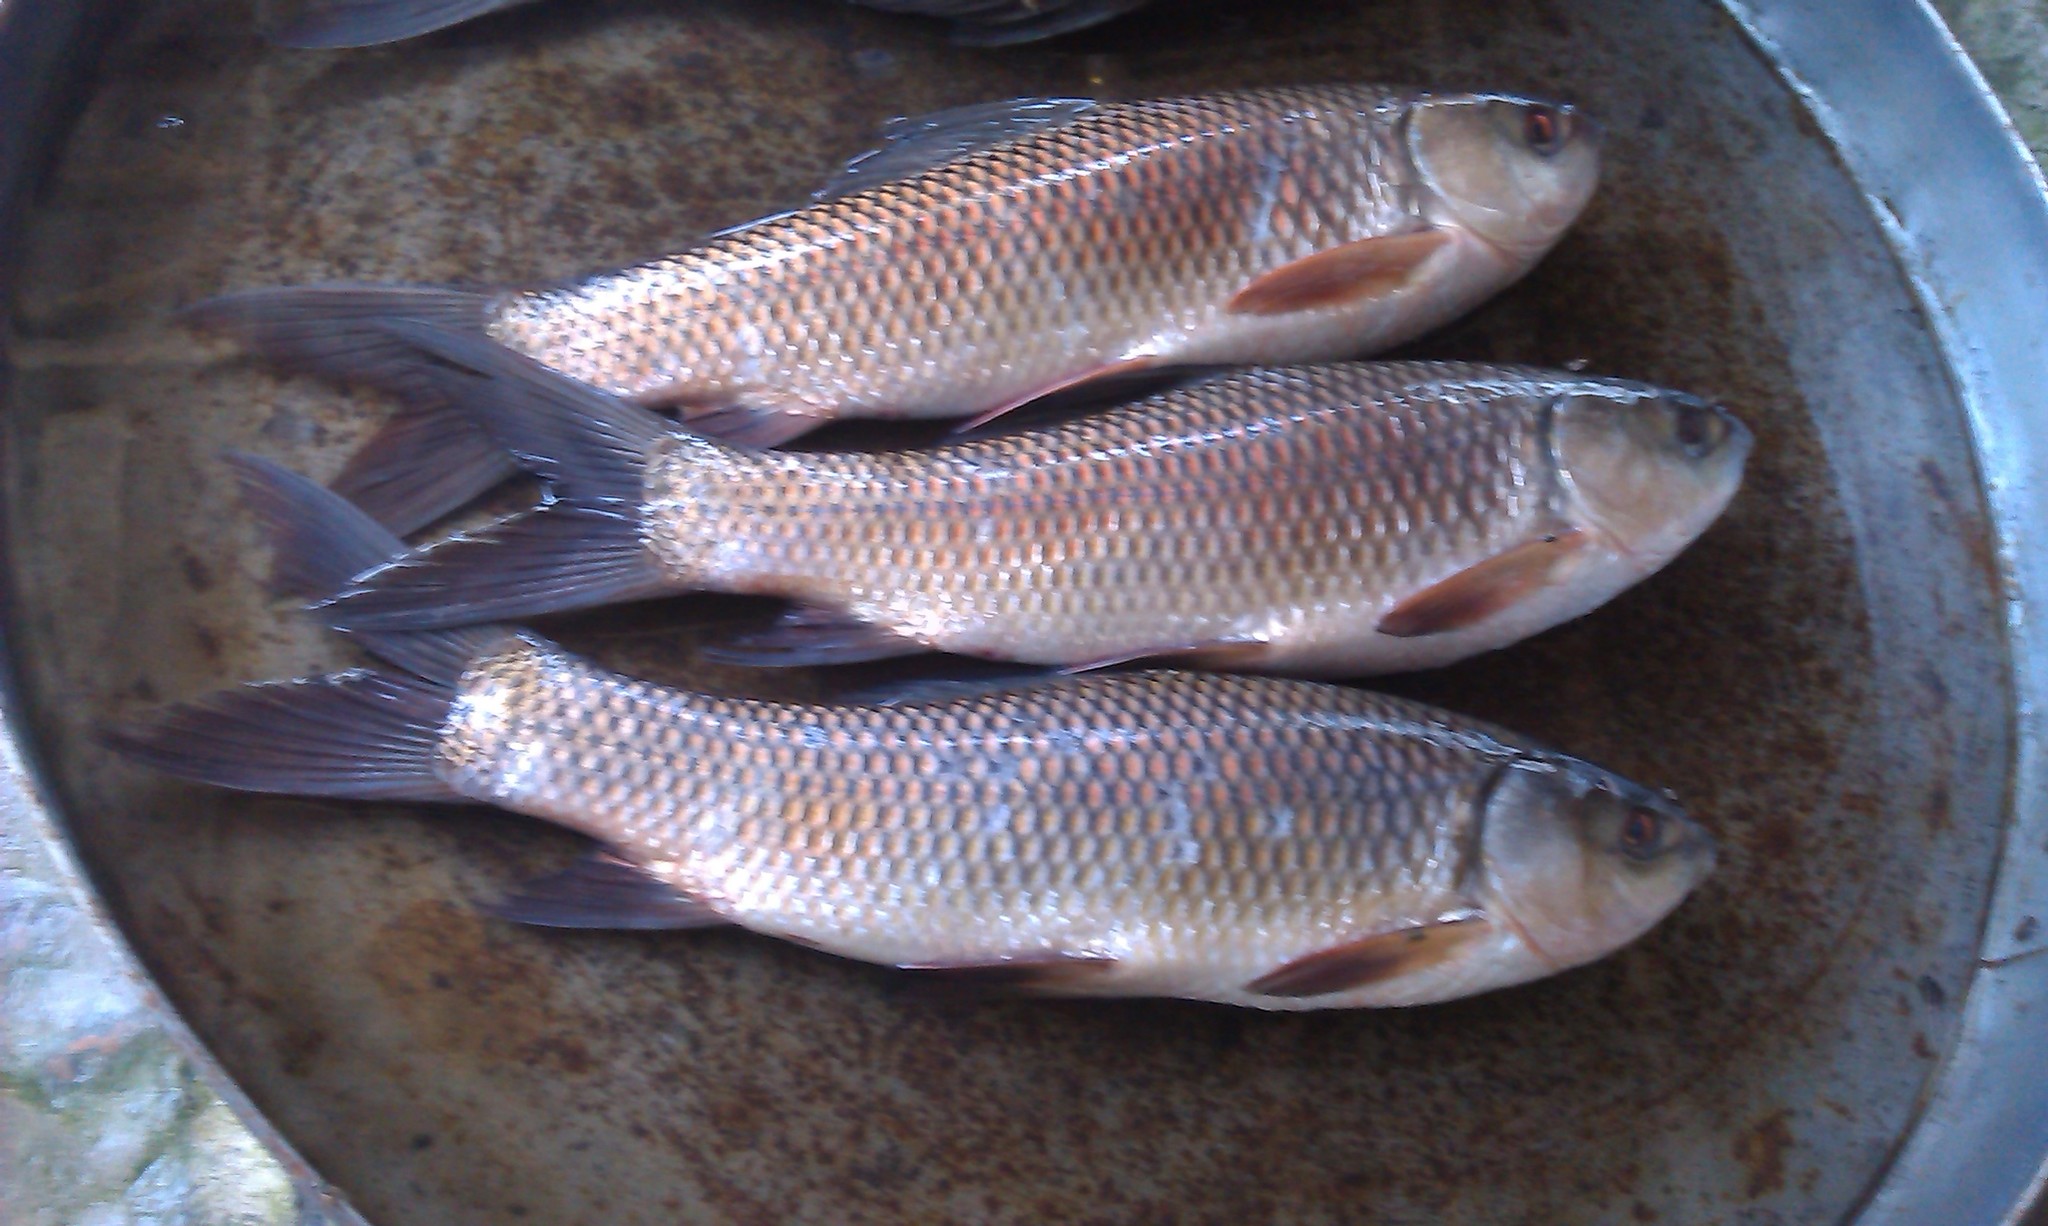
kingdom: Animalia
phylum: Chordata
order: Cypriniformes
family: Cyprinidae
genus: Labeo
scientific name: Labeo rohita
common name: Rohu
